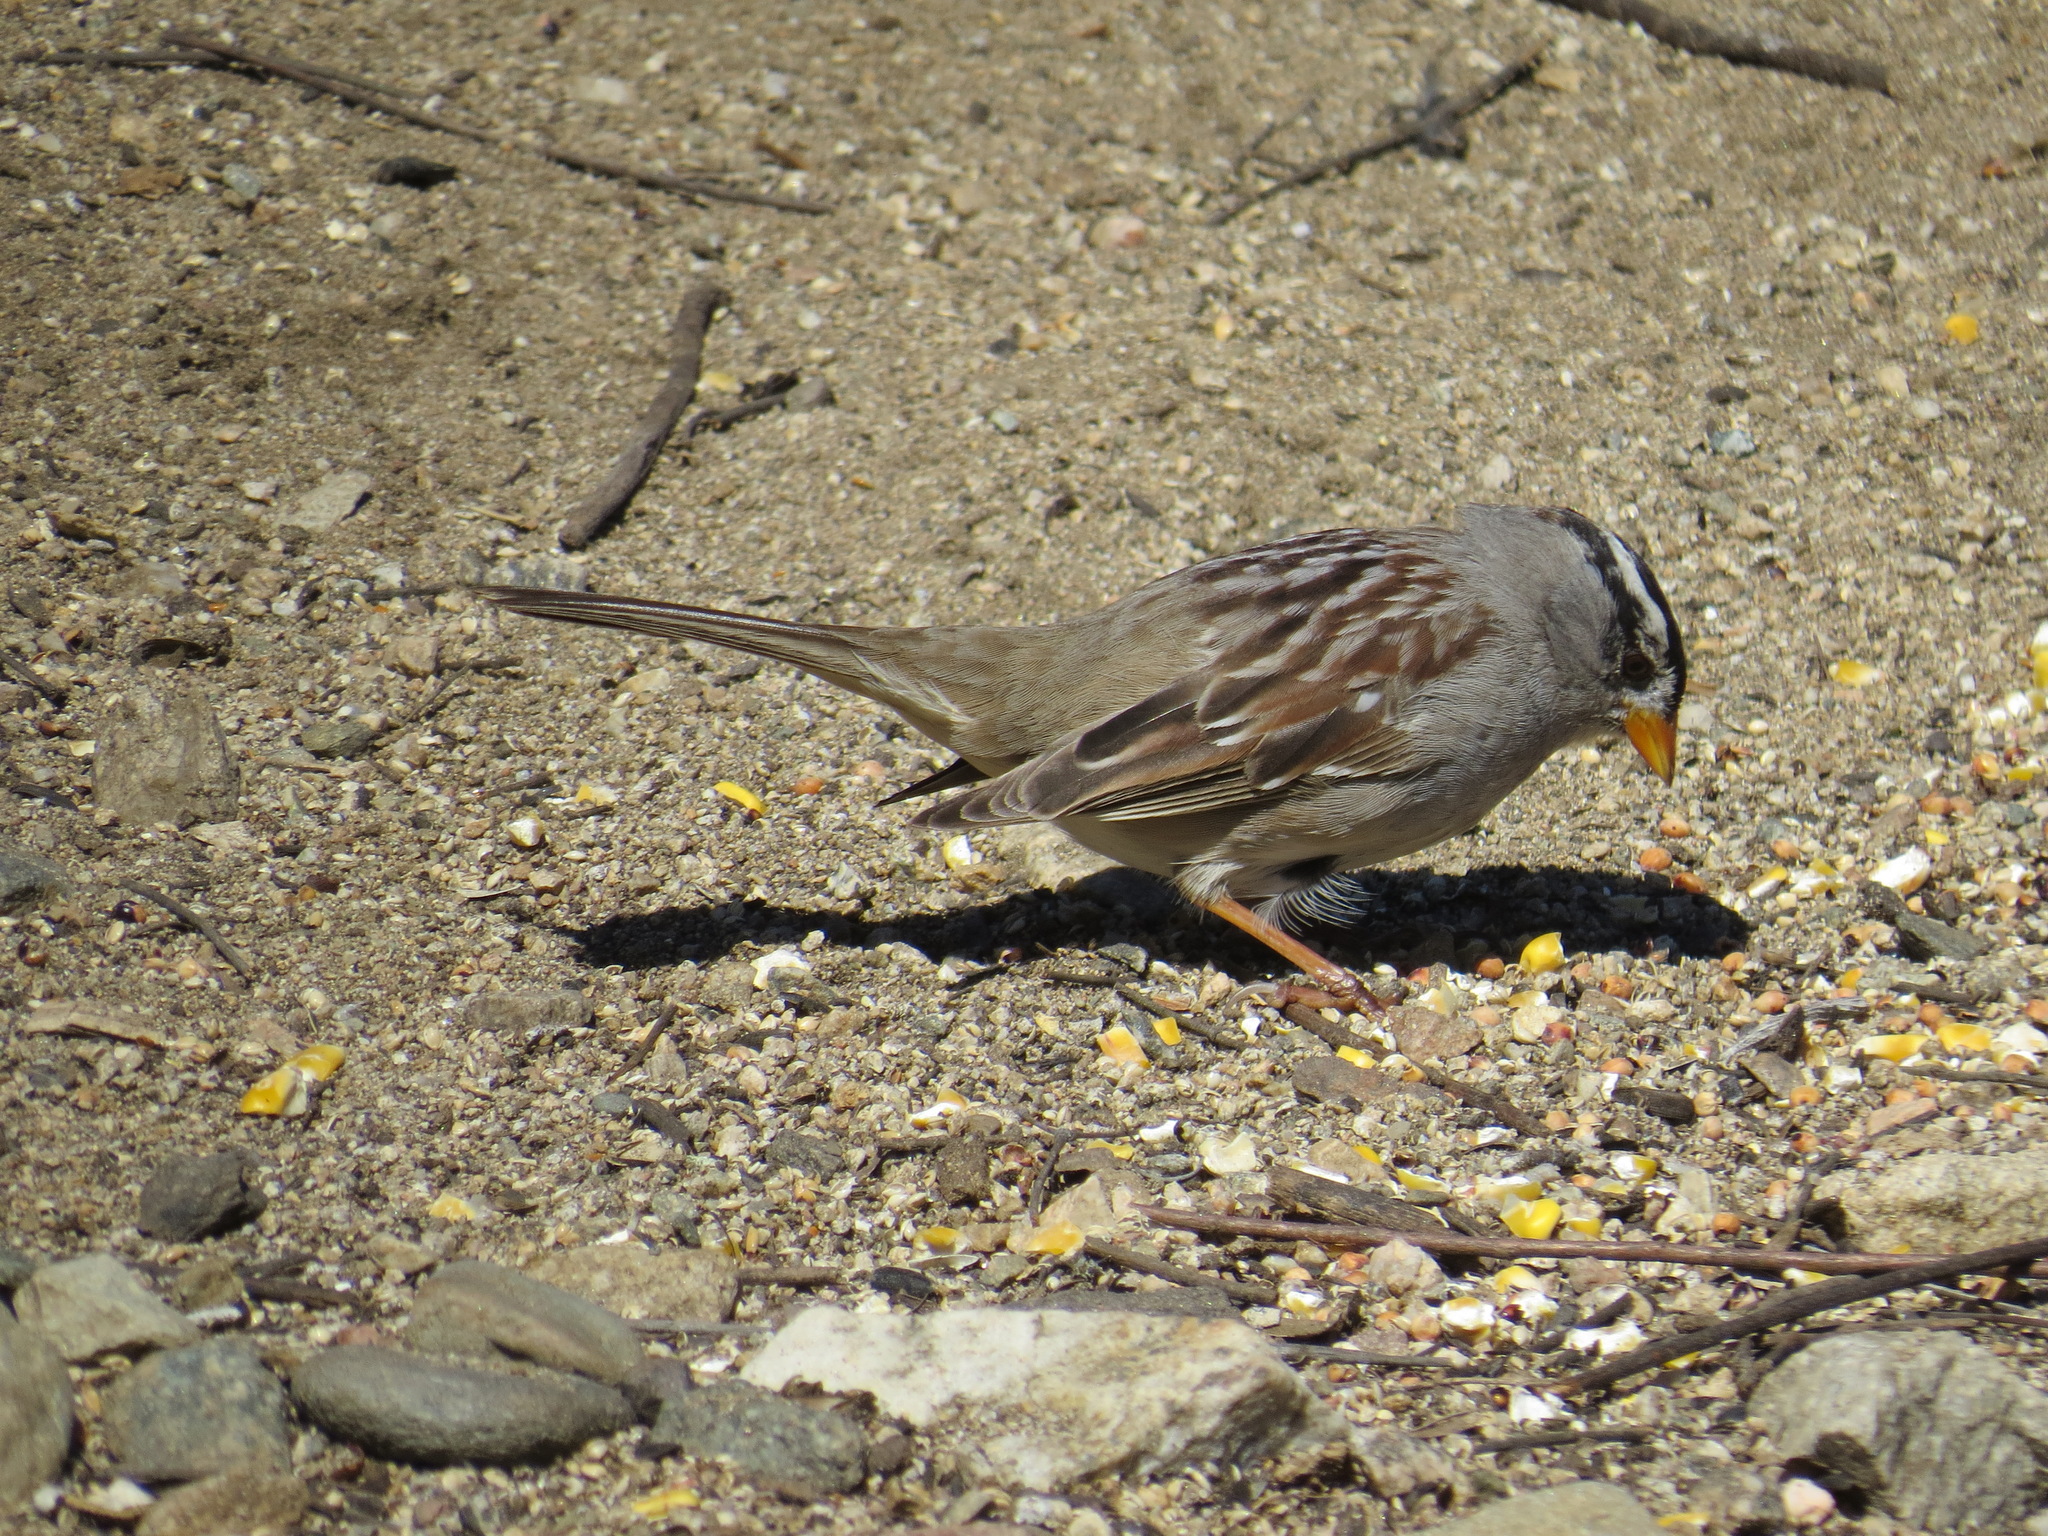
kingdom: Animalia
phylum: Chordata
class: Aves
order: Passeriformes
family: Passerellidae
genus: Zonotrichia
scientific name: Zonotrichia leucophrys
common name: White-crowned sparrow
